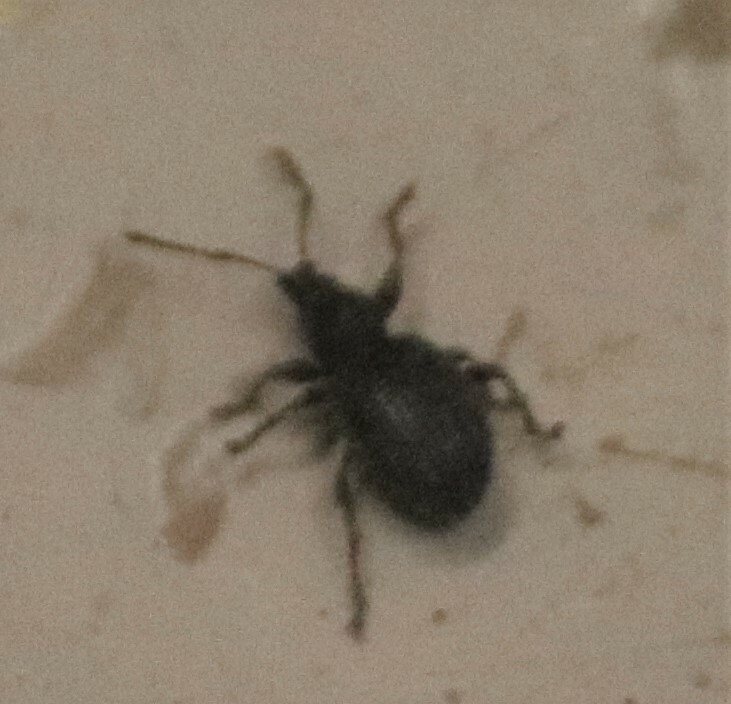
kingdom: Animalia
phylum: Arthropoda
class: Insecta
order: Coleoptera
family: Curculionidae
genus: Otiorhynchus
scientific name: Otiorhynchus ovatus
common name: Strawberry root weevil
